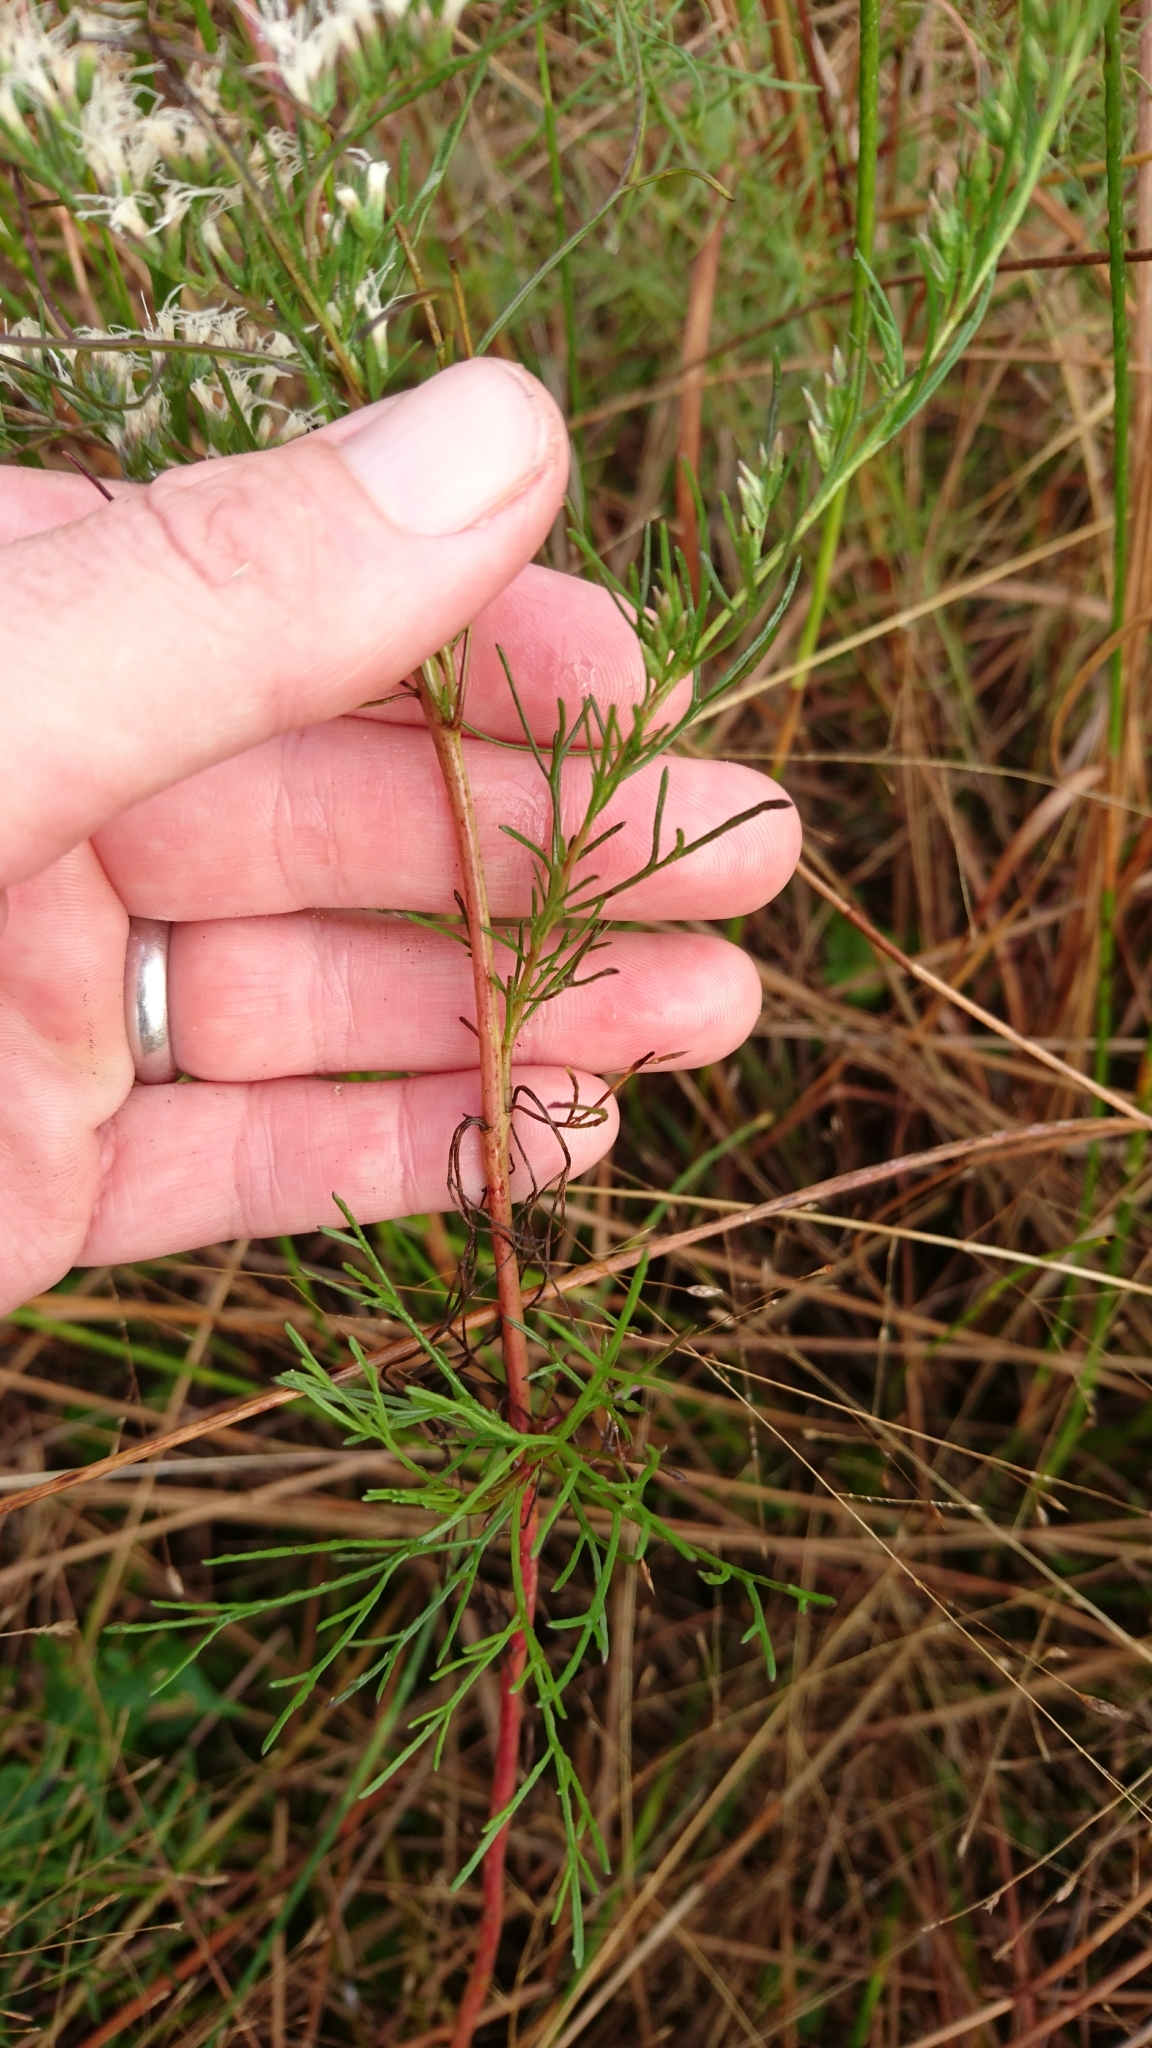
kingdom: Plantae
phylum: Tracheophyta
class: Magnoliopsida
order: Asterales
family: Asteraceae
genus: Eupatorium
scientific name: Eupatorium leptophyllum
